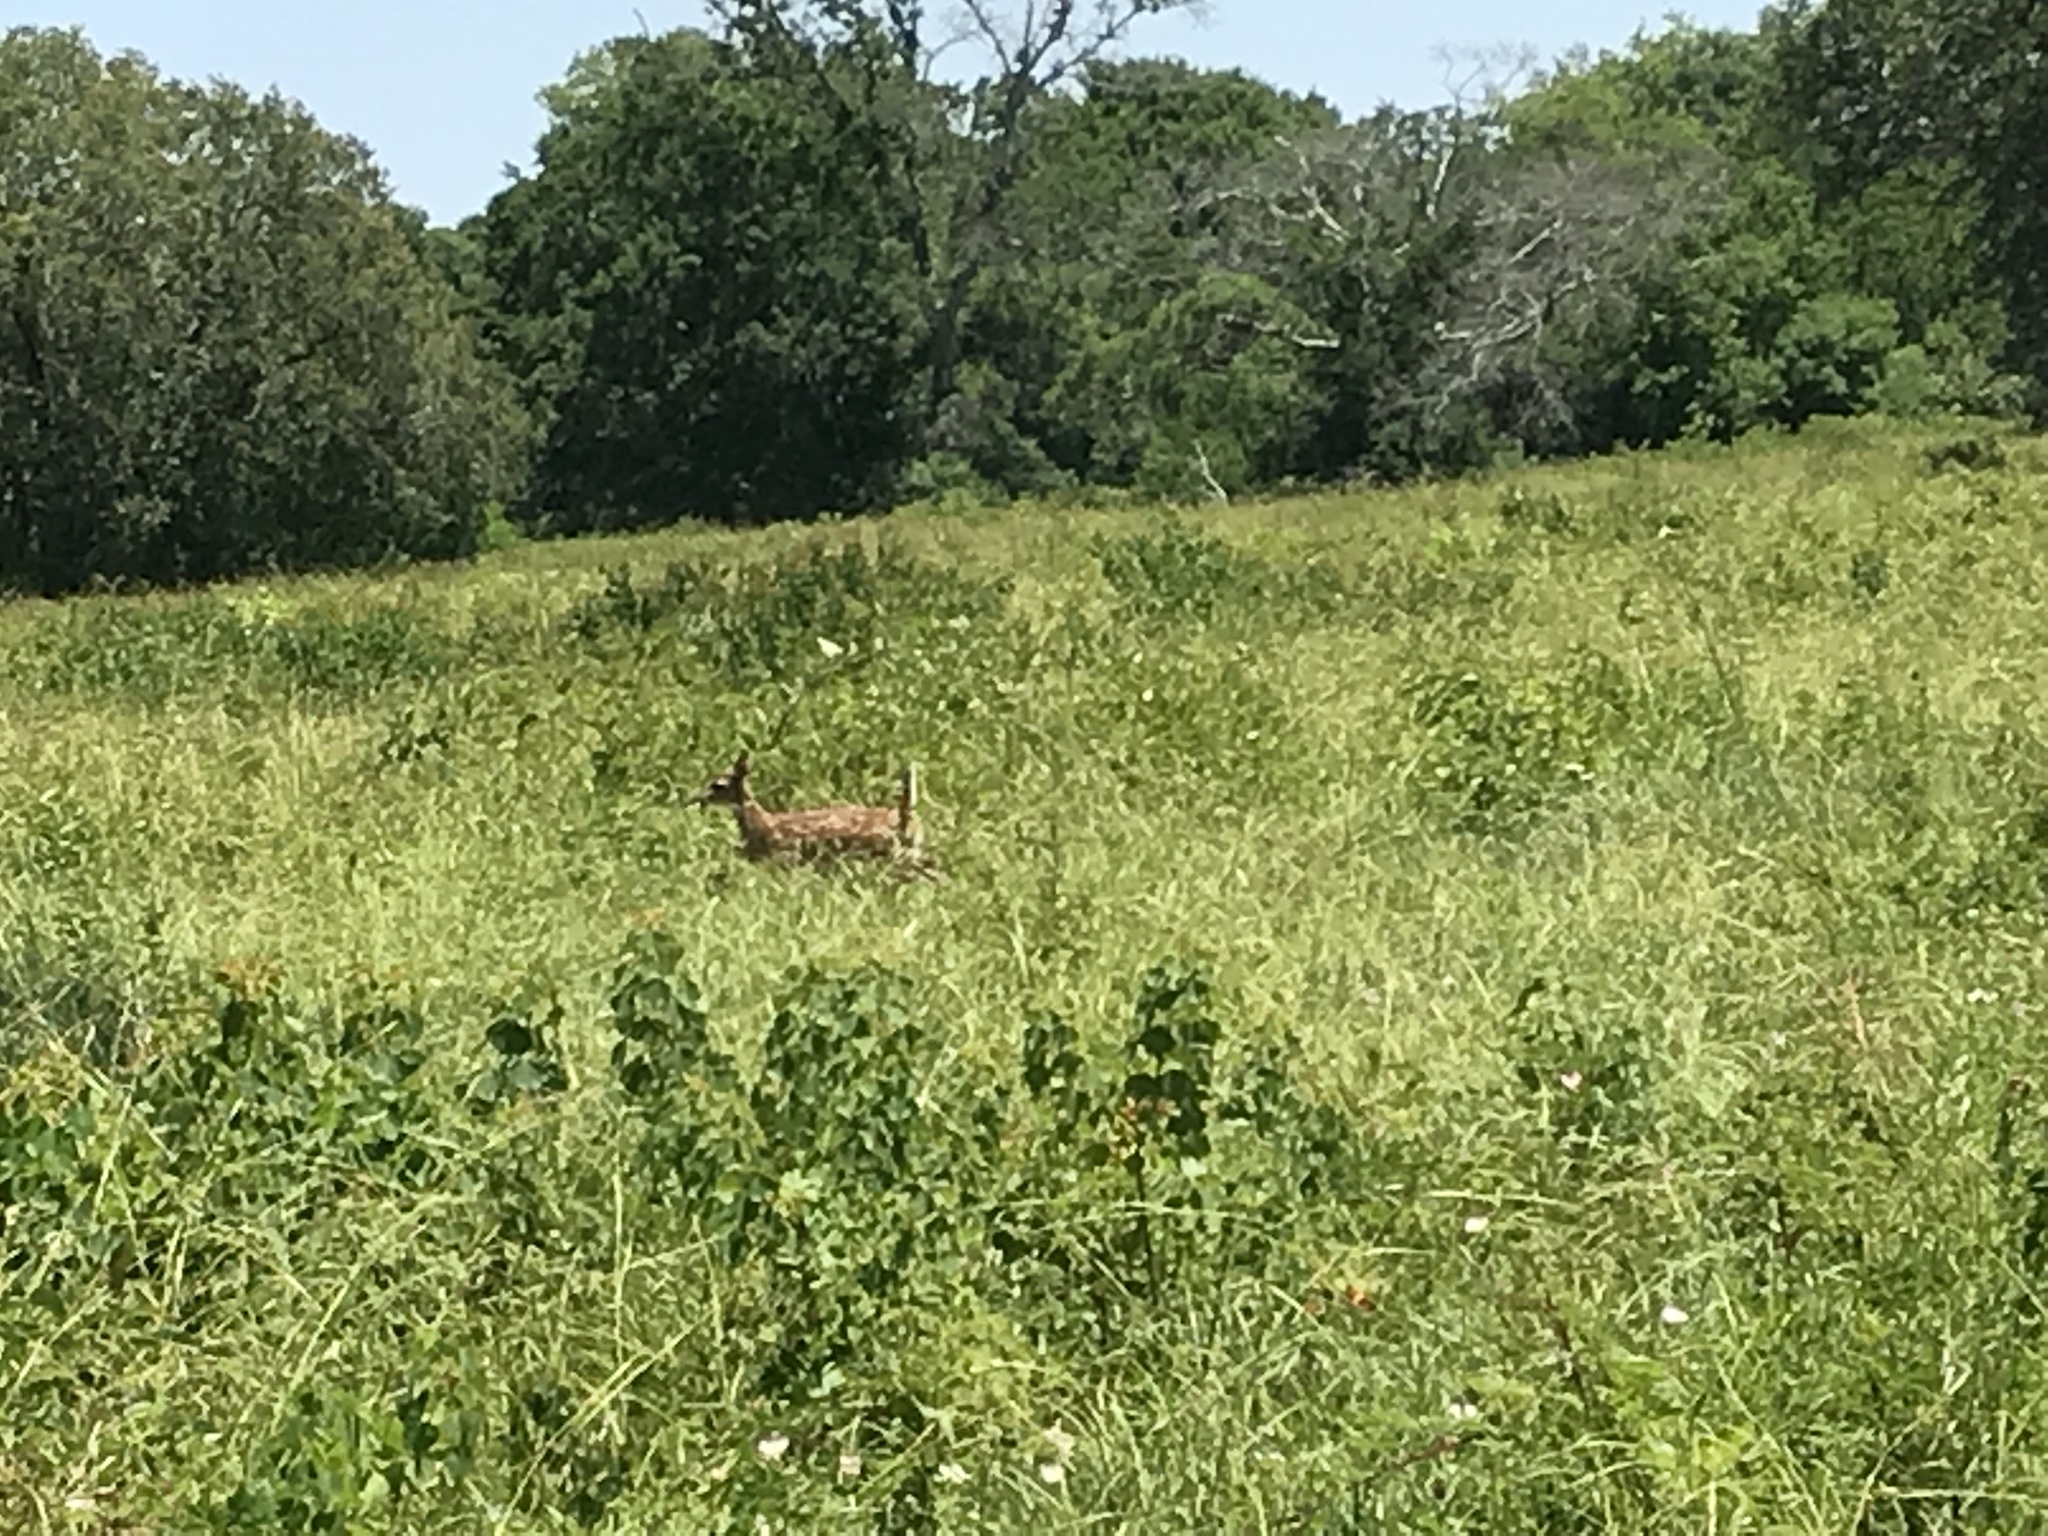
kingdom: Animalia
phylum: Chordata
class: Mammalia
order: Artiodactyla
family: Cervidae
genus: Odocoileus
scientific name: Odocoileus virginianus
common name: White-tailed deer
